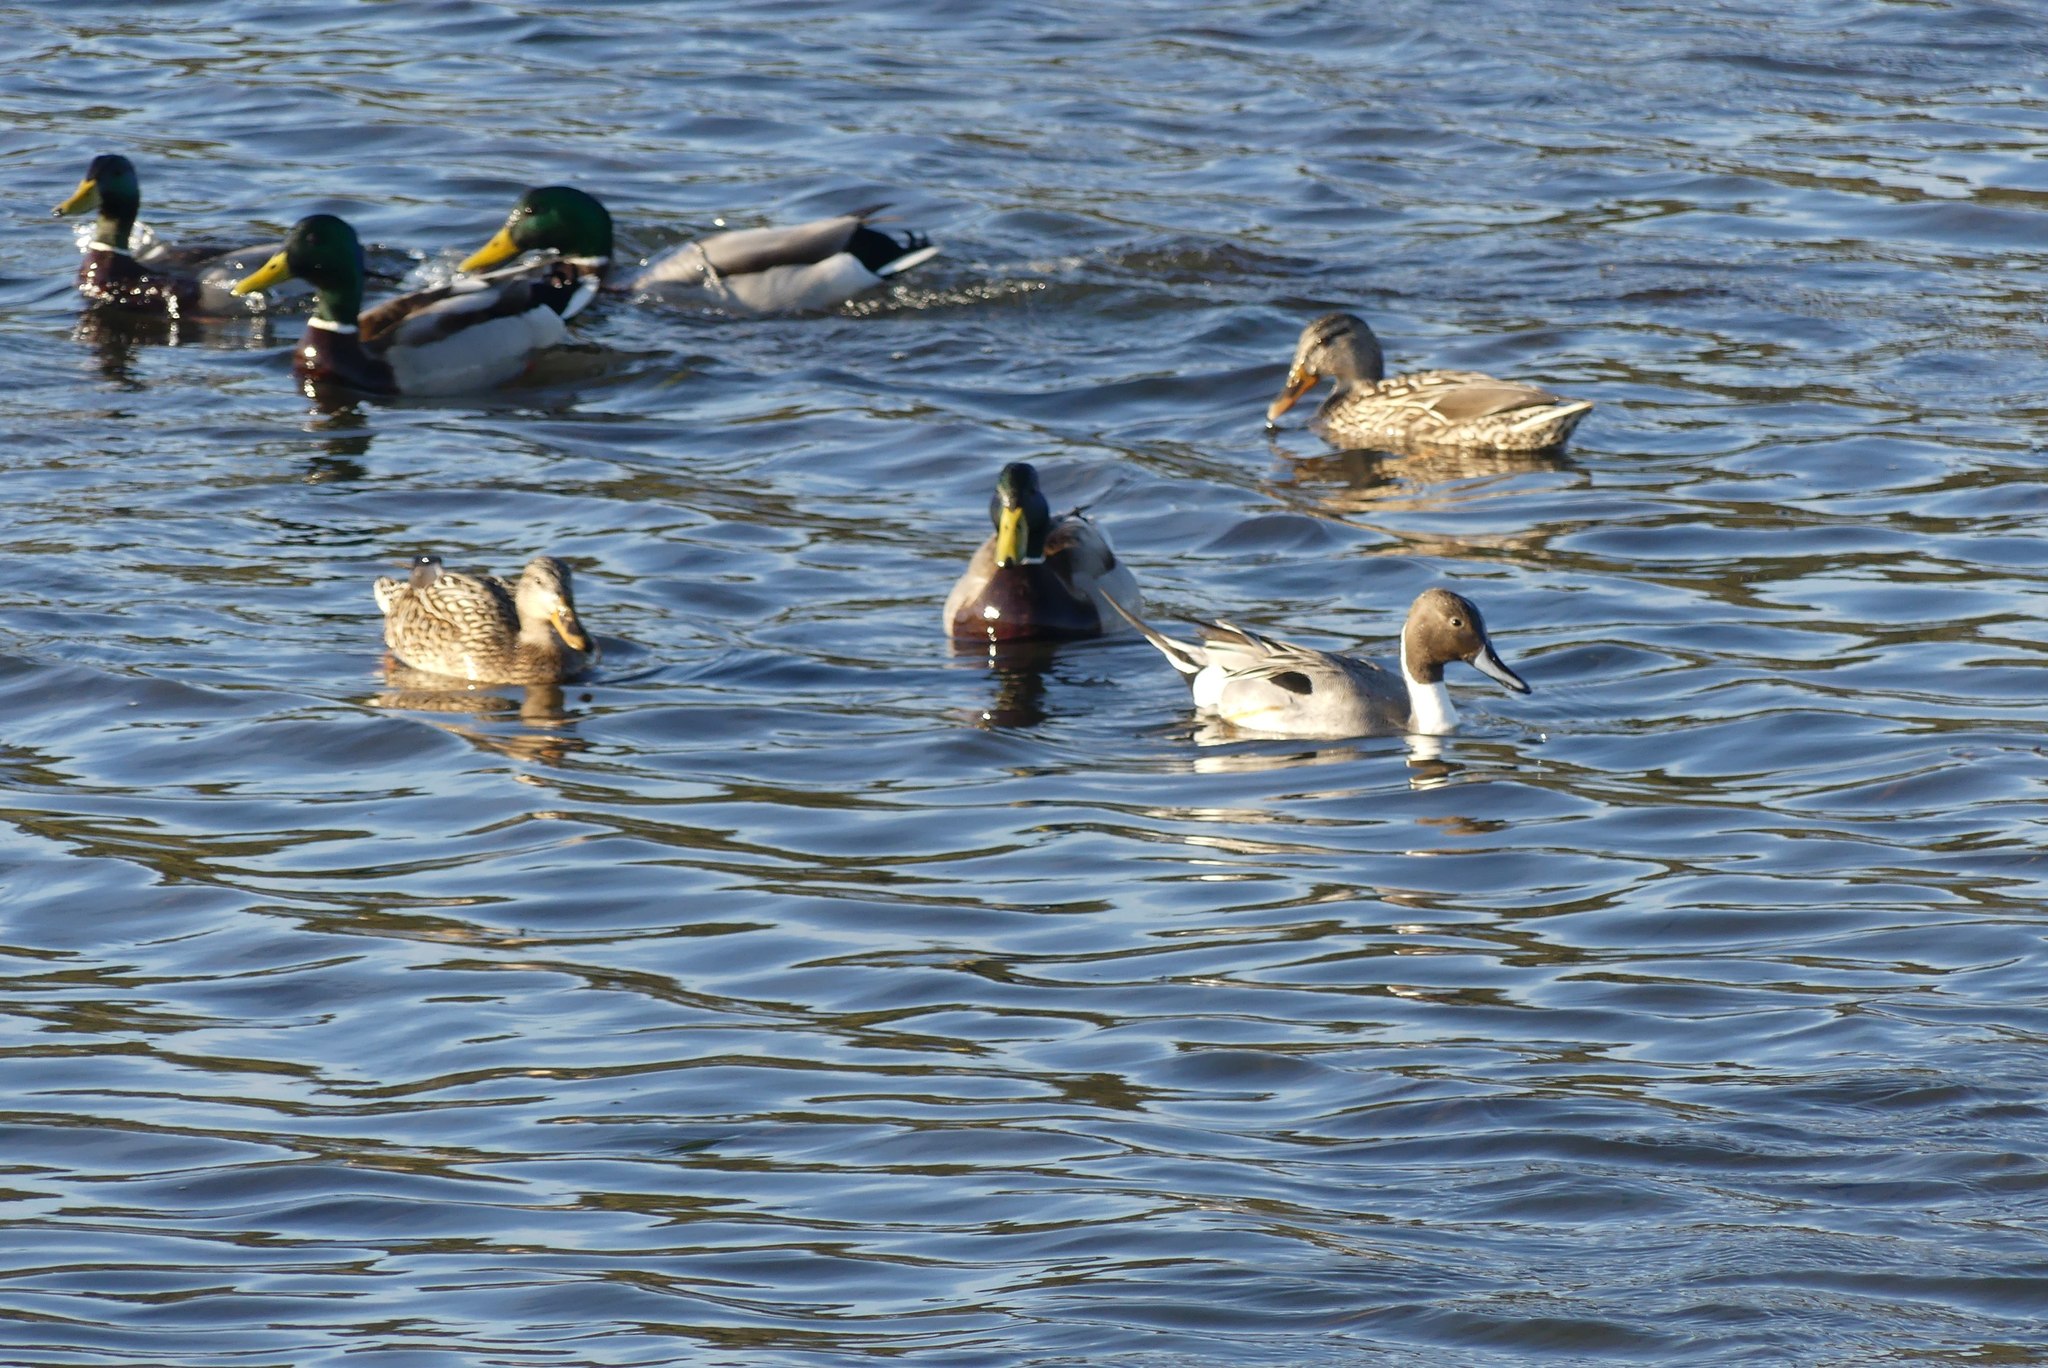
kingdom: Animalia
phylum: Chordata
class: Aves
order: Anseriformes
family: Anatidae
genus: Anas
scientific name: Anas acuta
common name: Northern pintail
